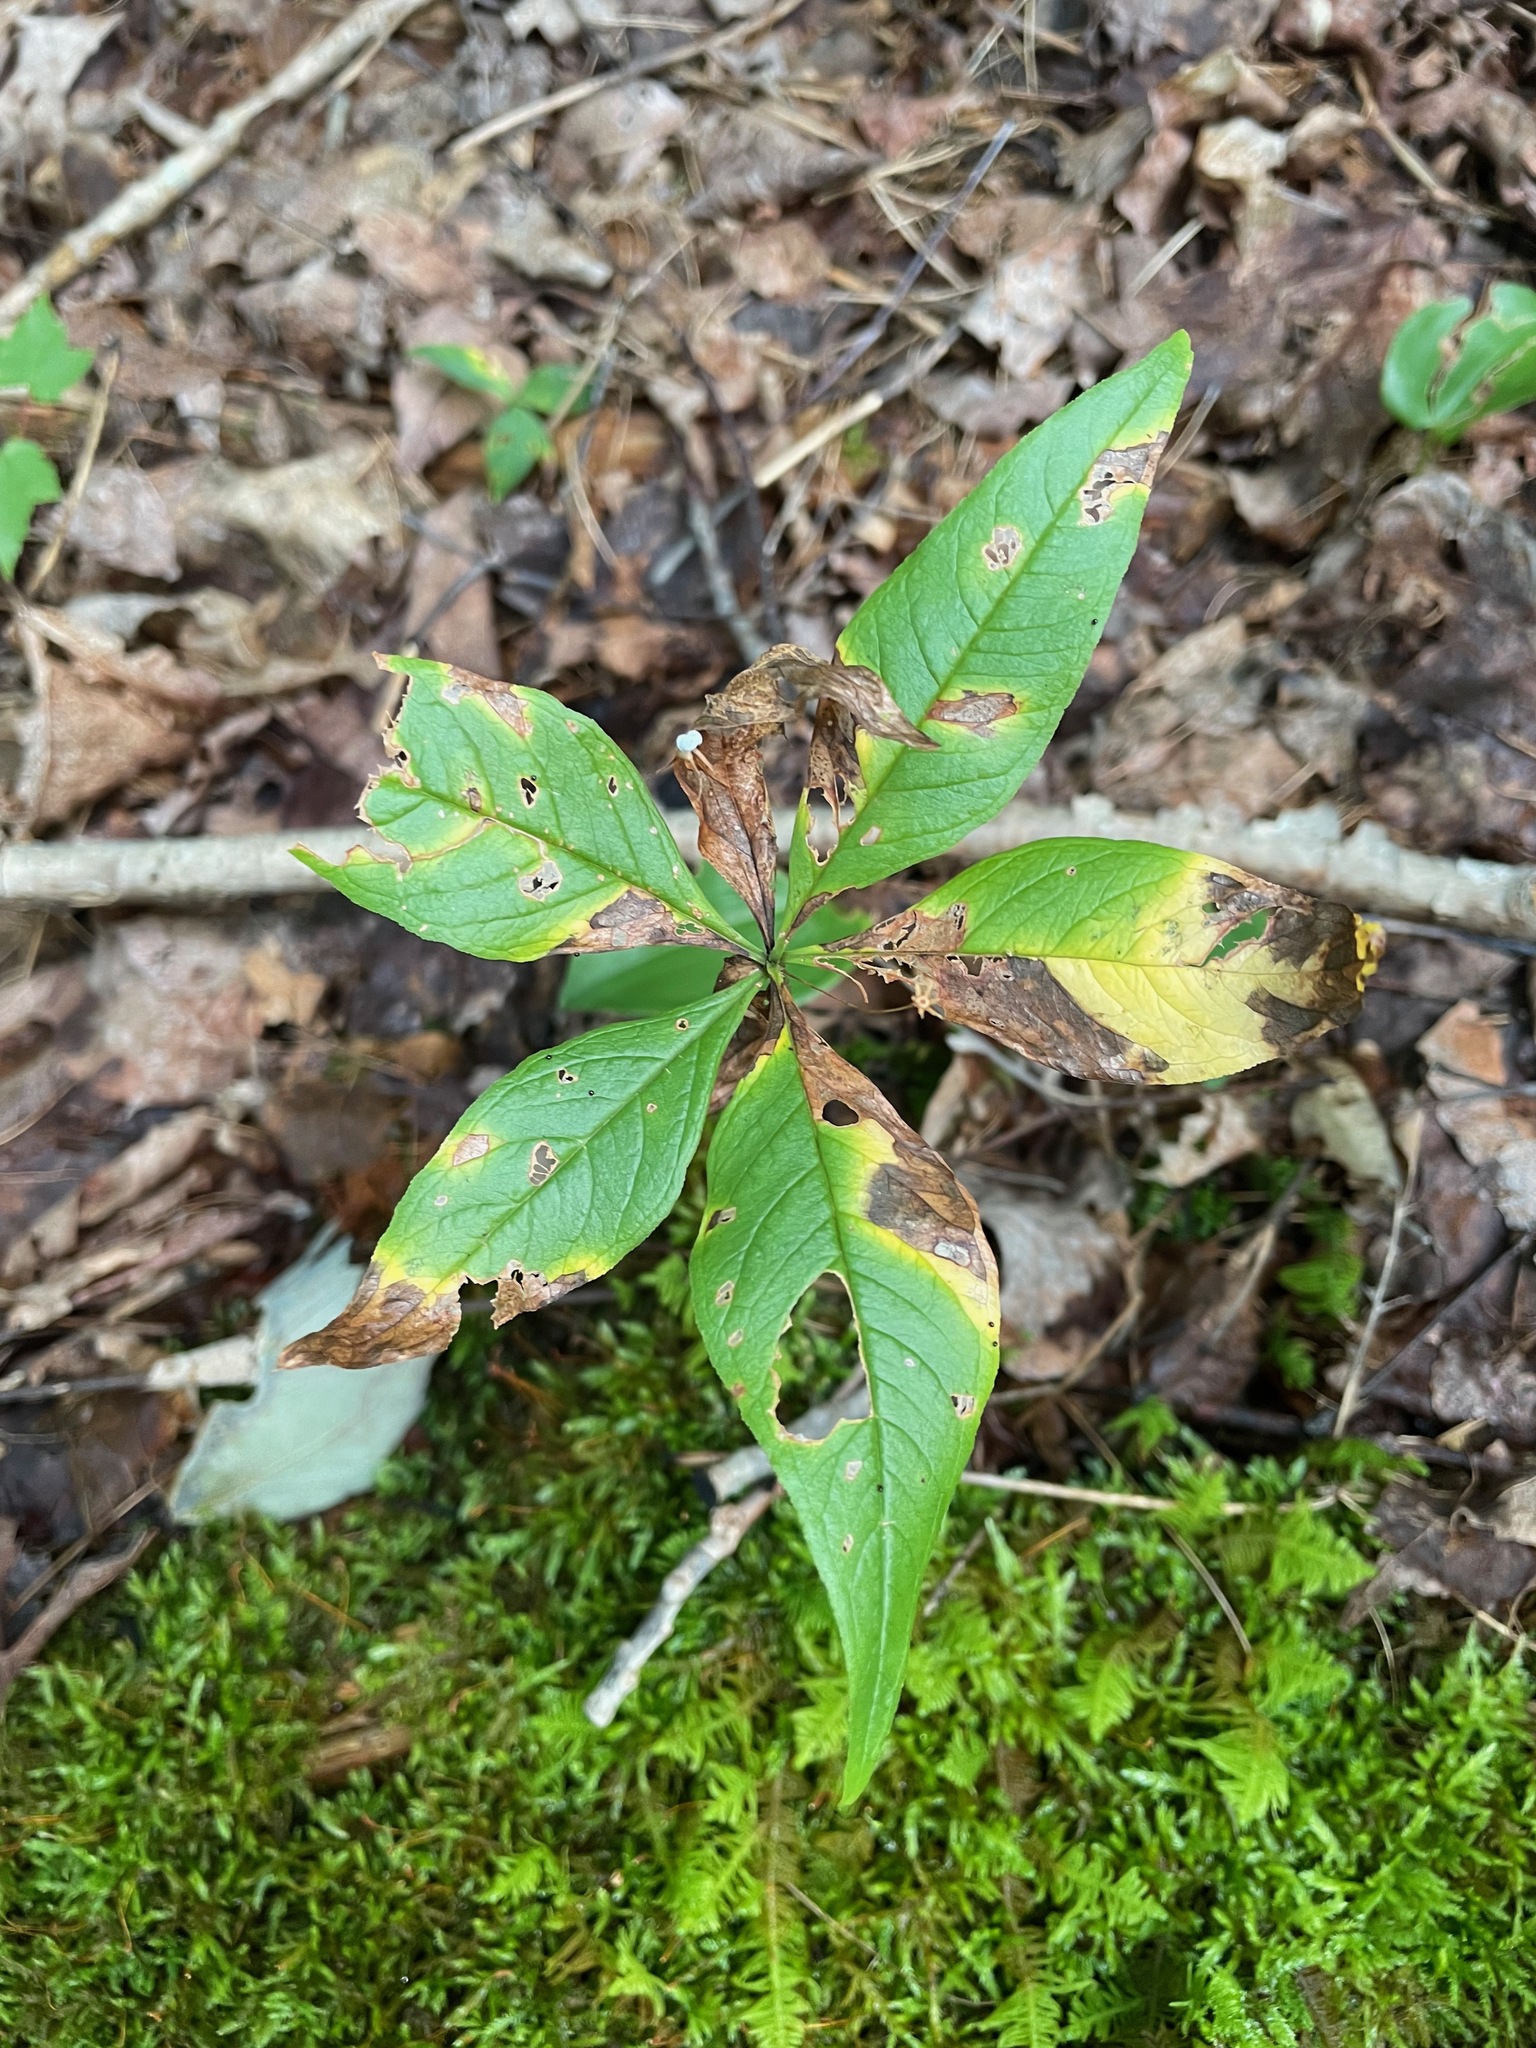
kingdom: Plantae
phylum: Tracheophyta
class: Magnoliopsida
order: Ericales
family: Primulaceae
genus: Lysimachia
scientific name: Lysimachia borealis
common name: American starflower
